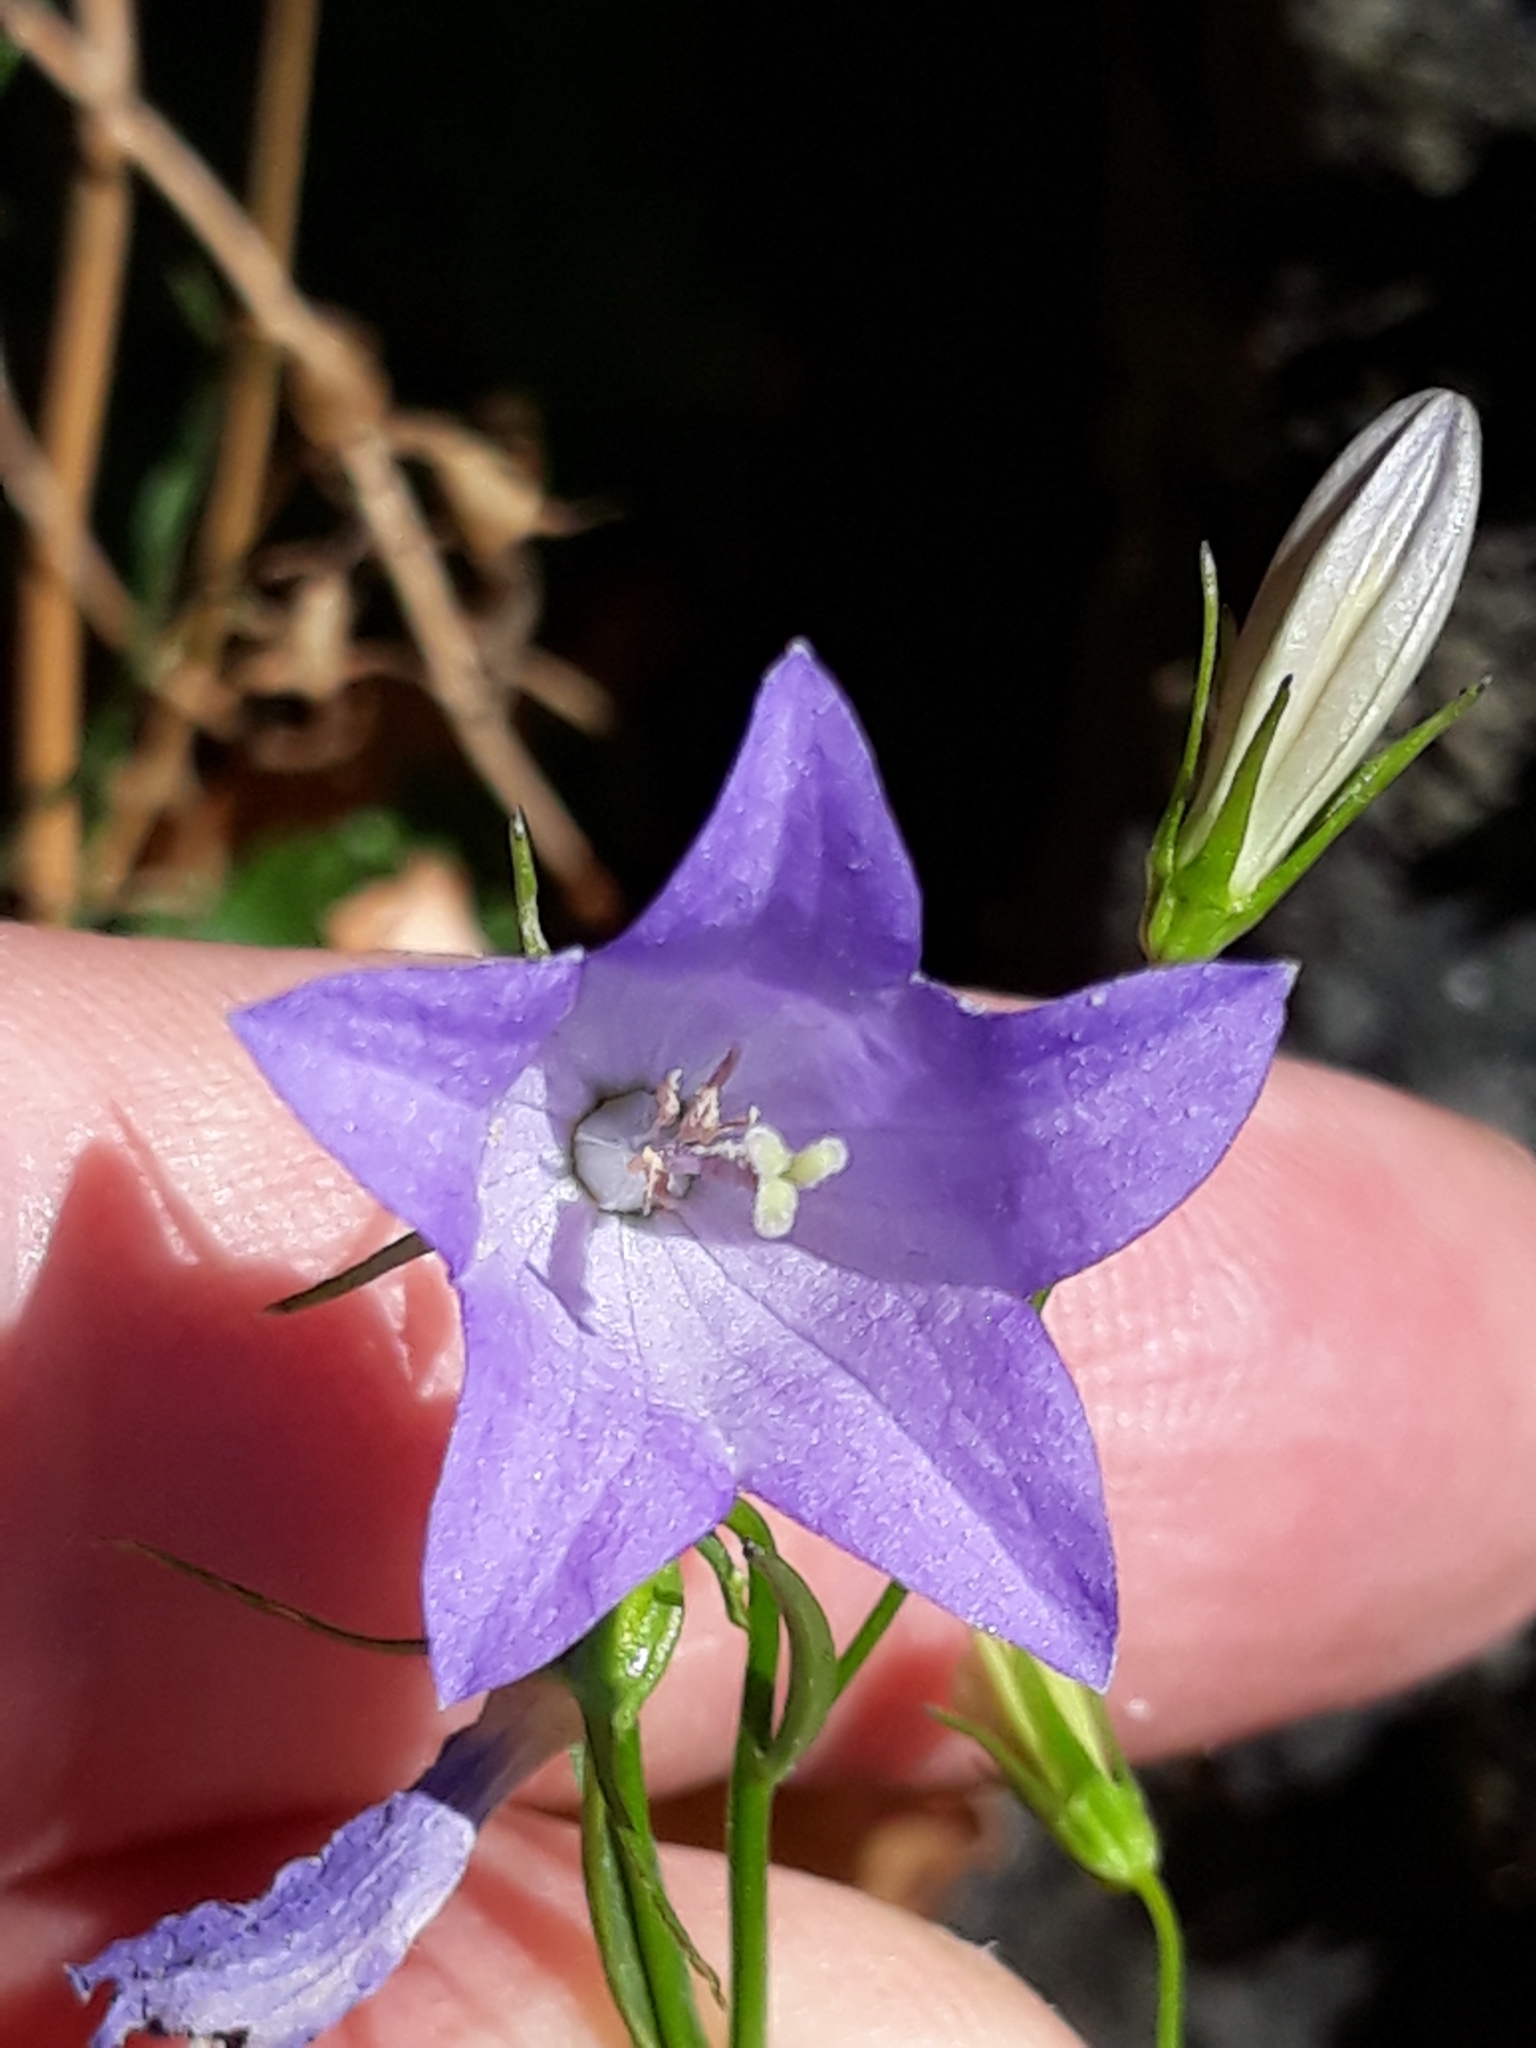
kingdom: Plantae
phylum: Tracheophyta
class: Magnoliopsida
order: Asterales
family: Campanulaceae
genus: Campanula
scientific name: Campanula rotundifolia
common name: Harebell
